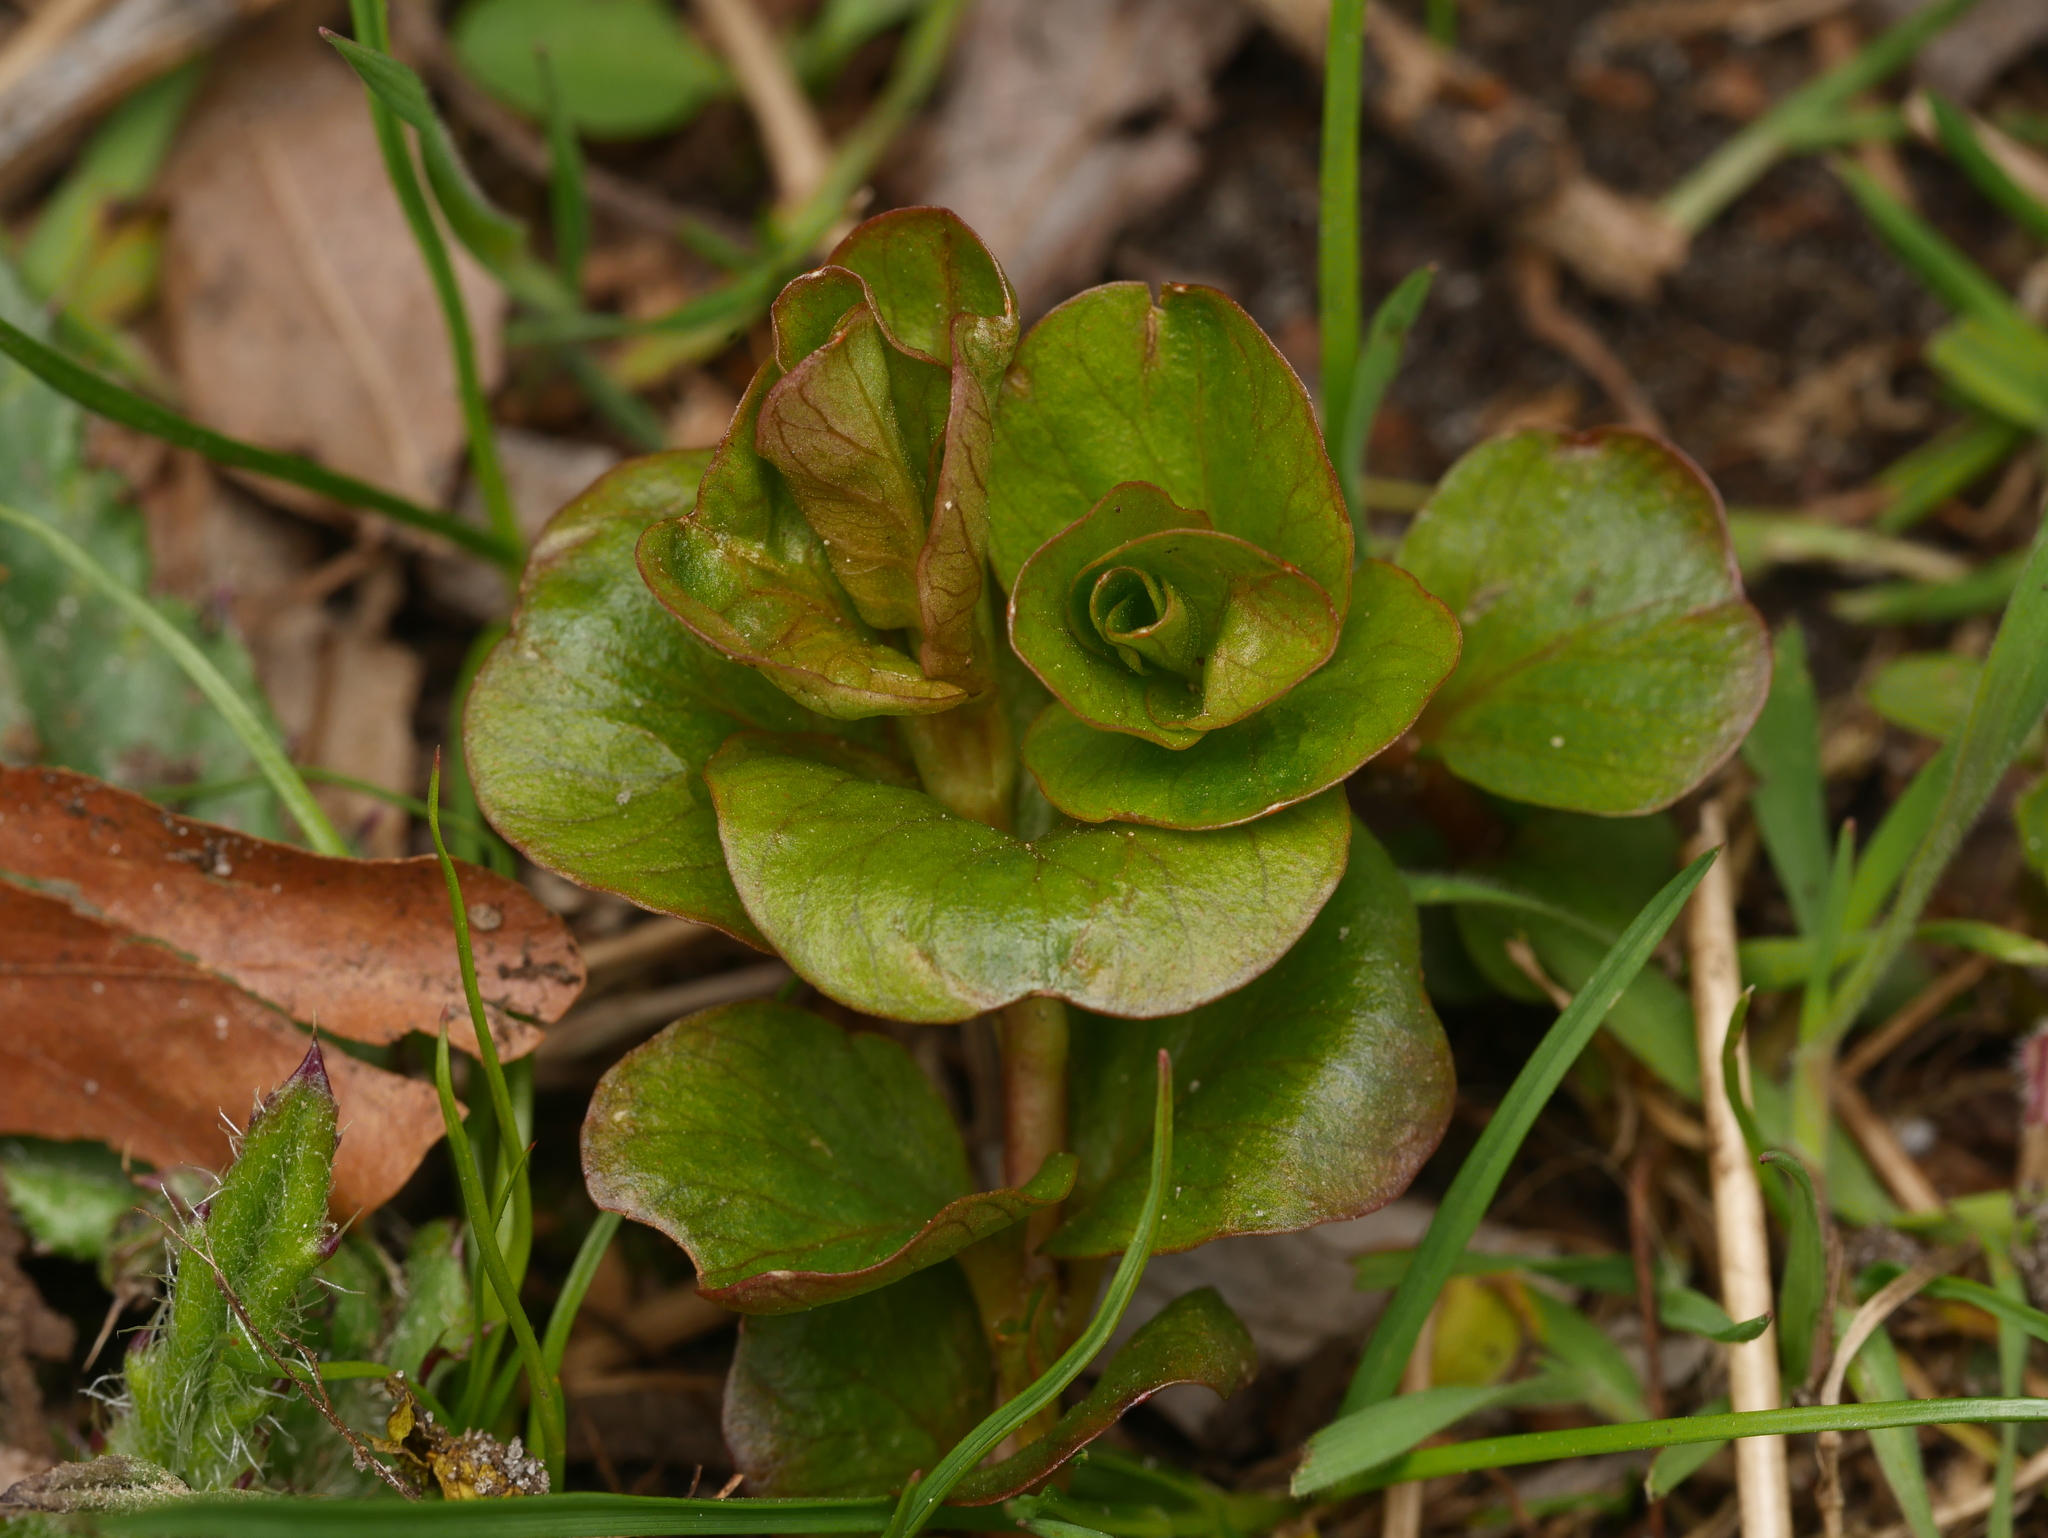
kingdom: Plantae
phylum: Tracheophyta
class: Magnoliopsida
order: Ericales
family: Primulaceae
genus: Lysimachia
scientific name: Lysimachia nummularia
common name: Moneywort
